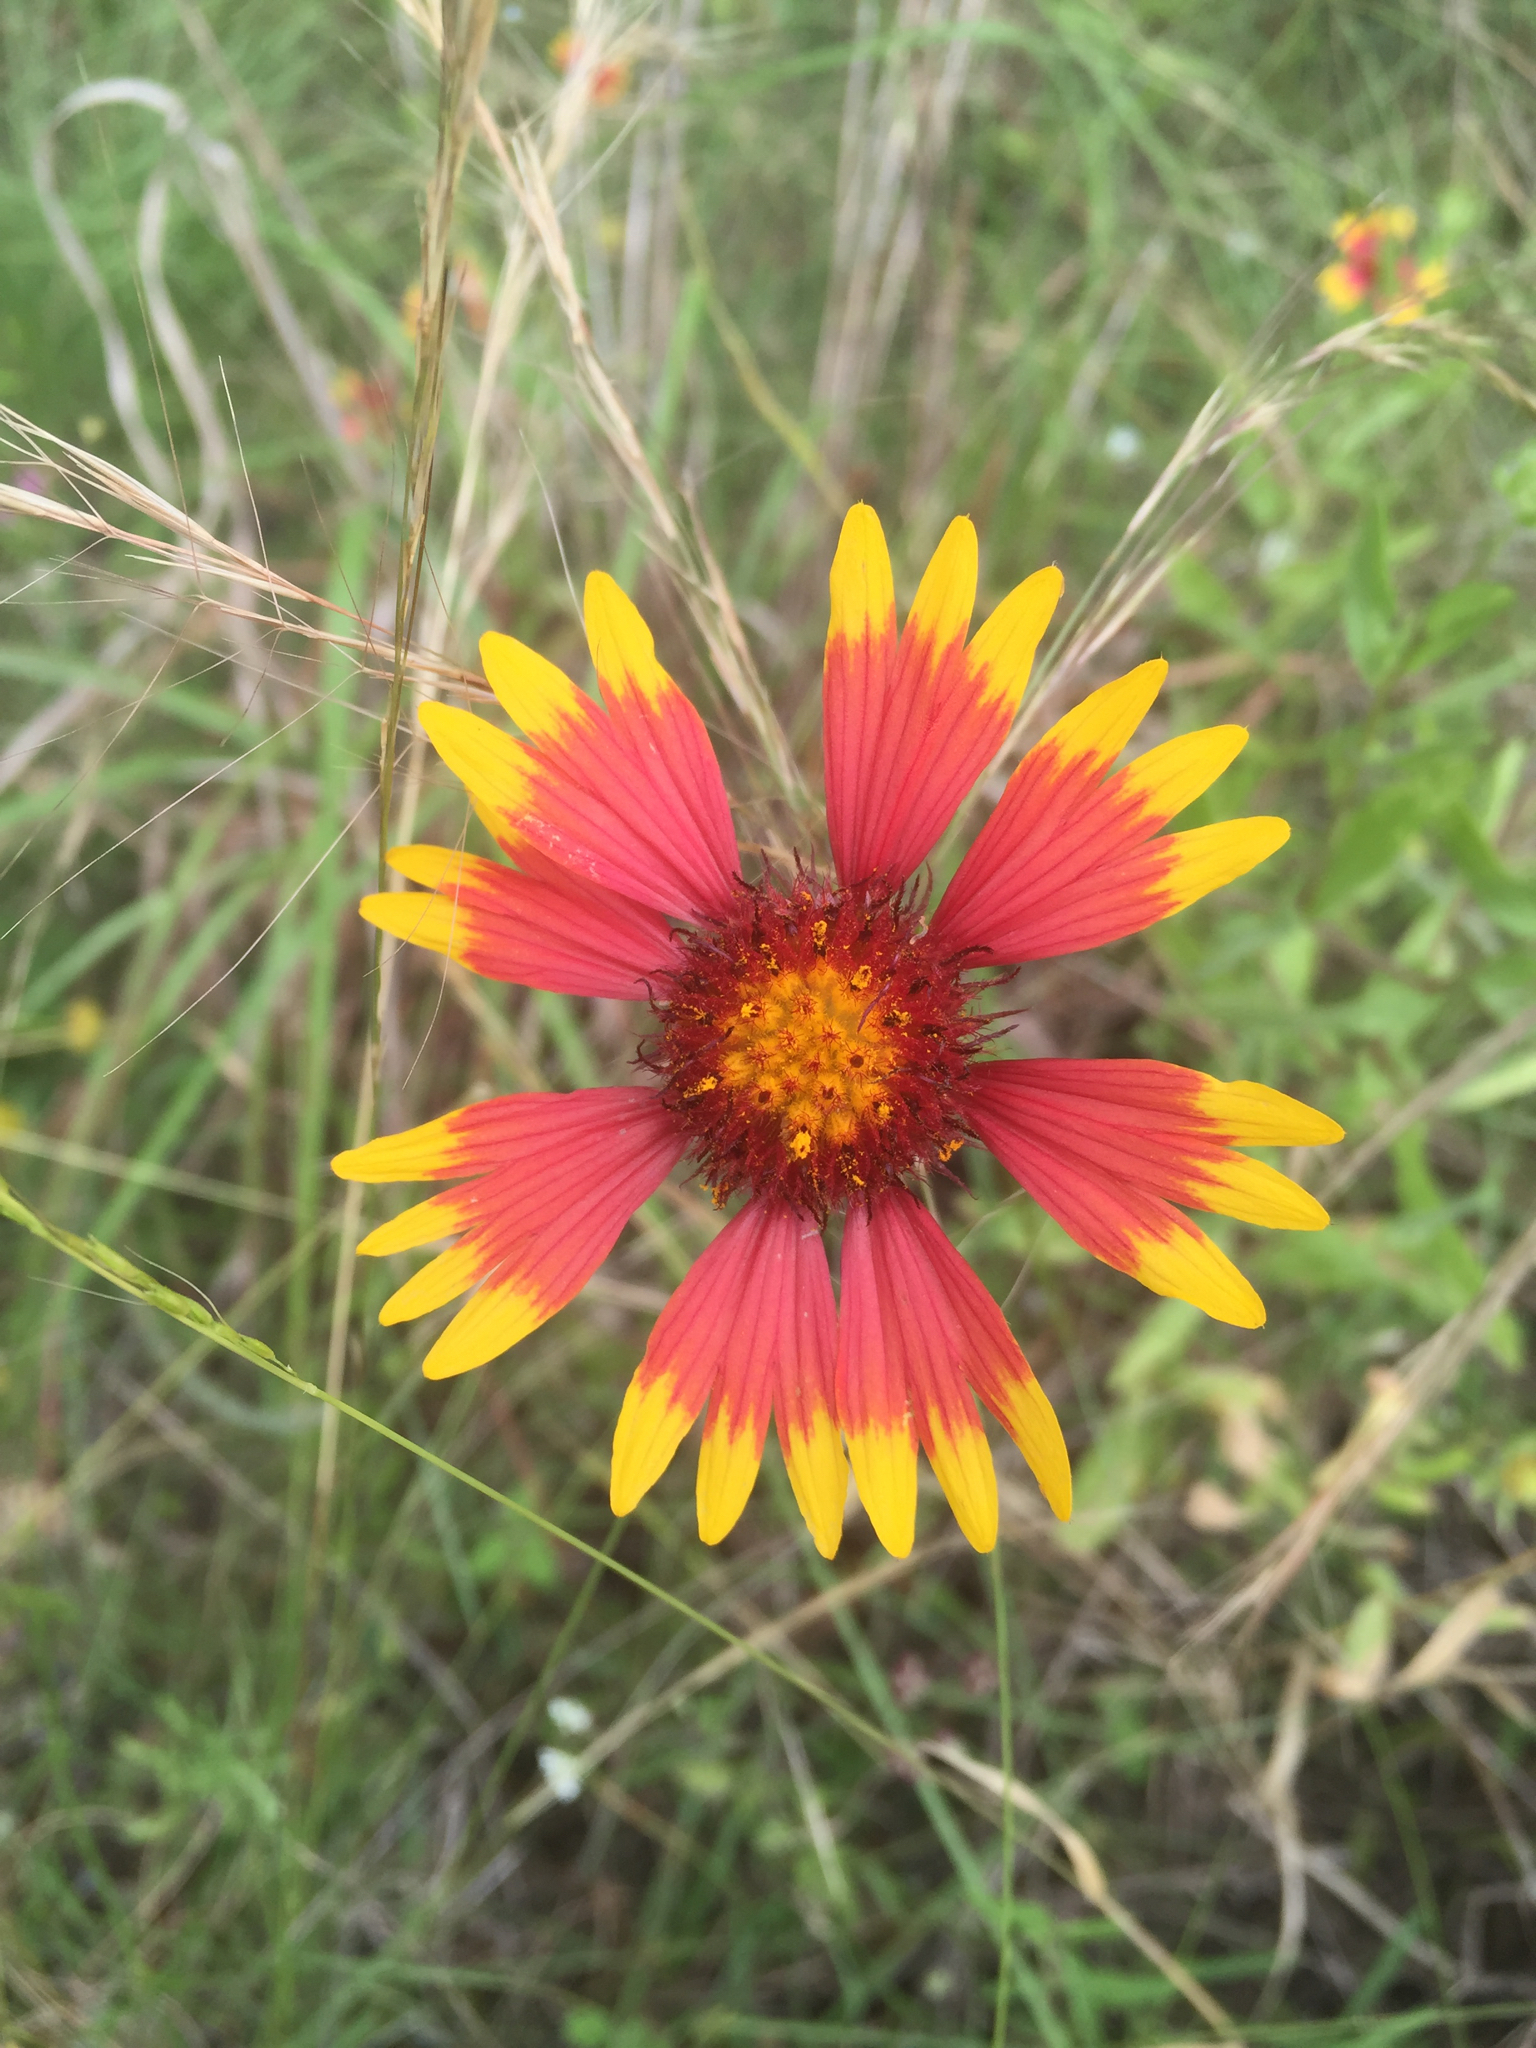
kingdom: Plantae
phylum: Tracheophyta
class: Magnoliopsida
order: Asterales
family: Asteraceae
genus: Gaillardia
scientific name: Gaillardia pulchella
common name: Firewheel
